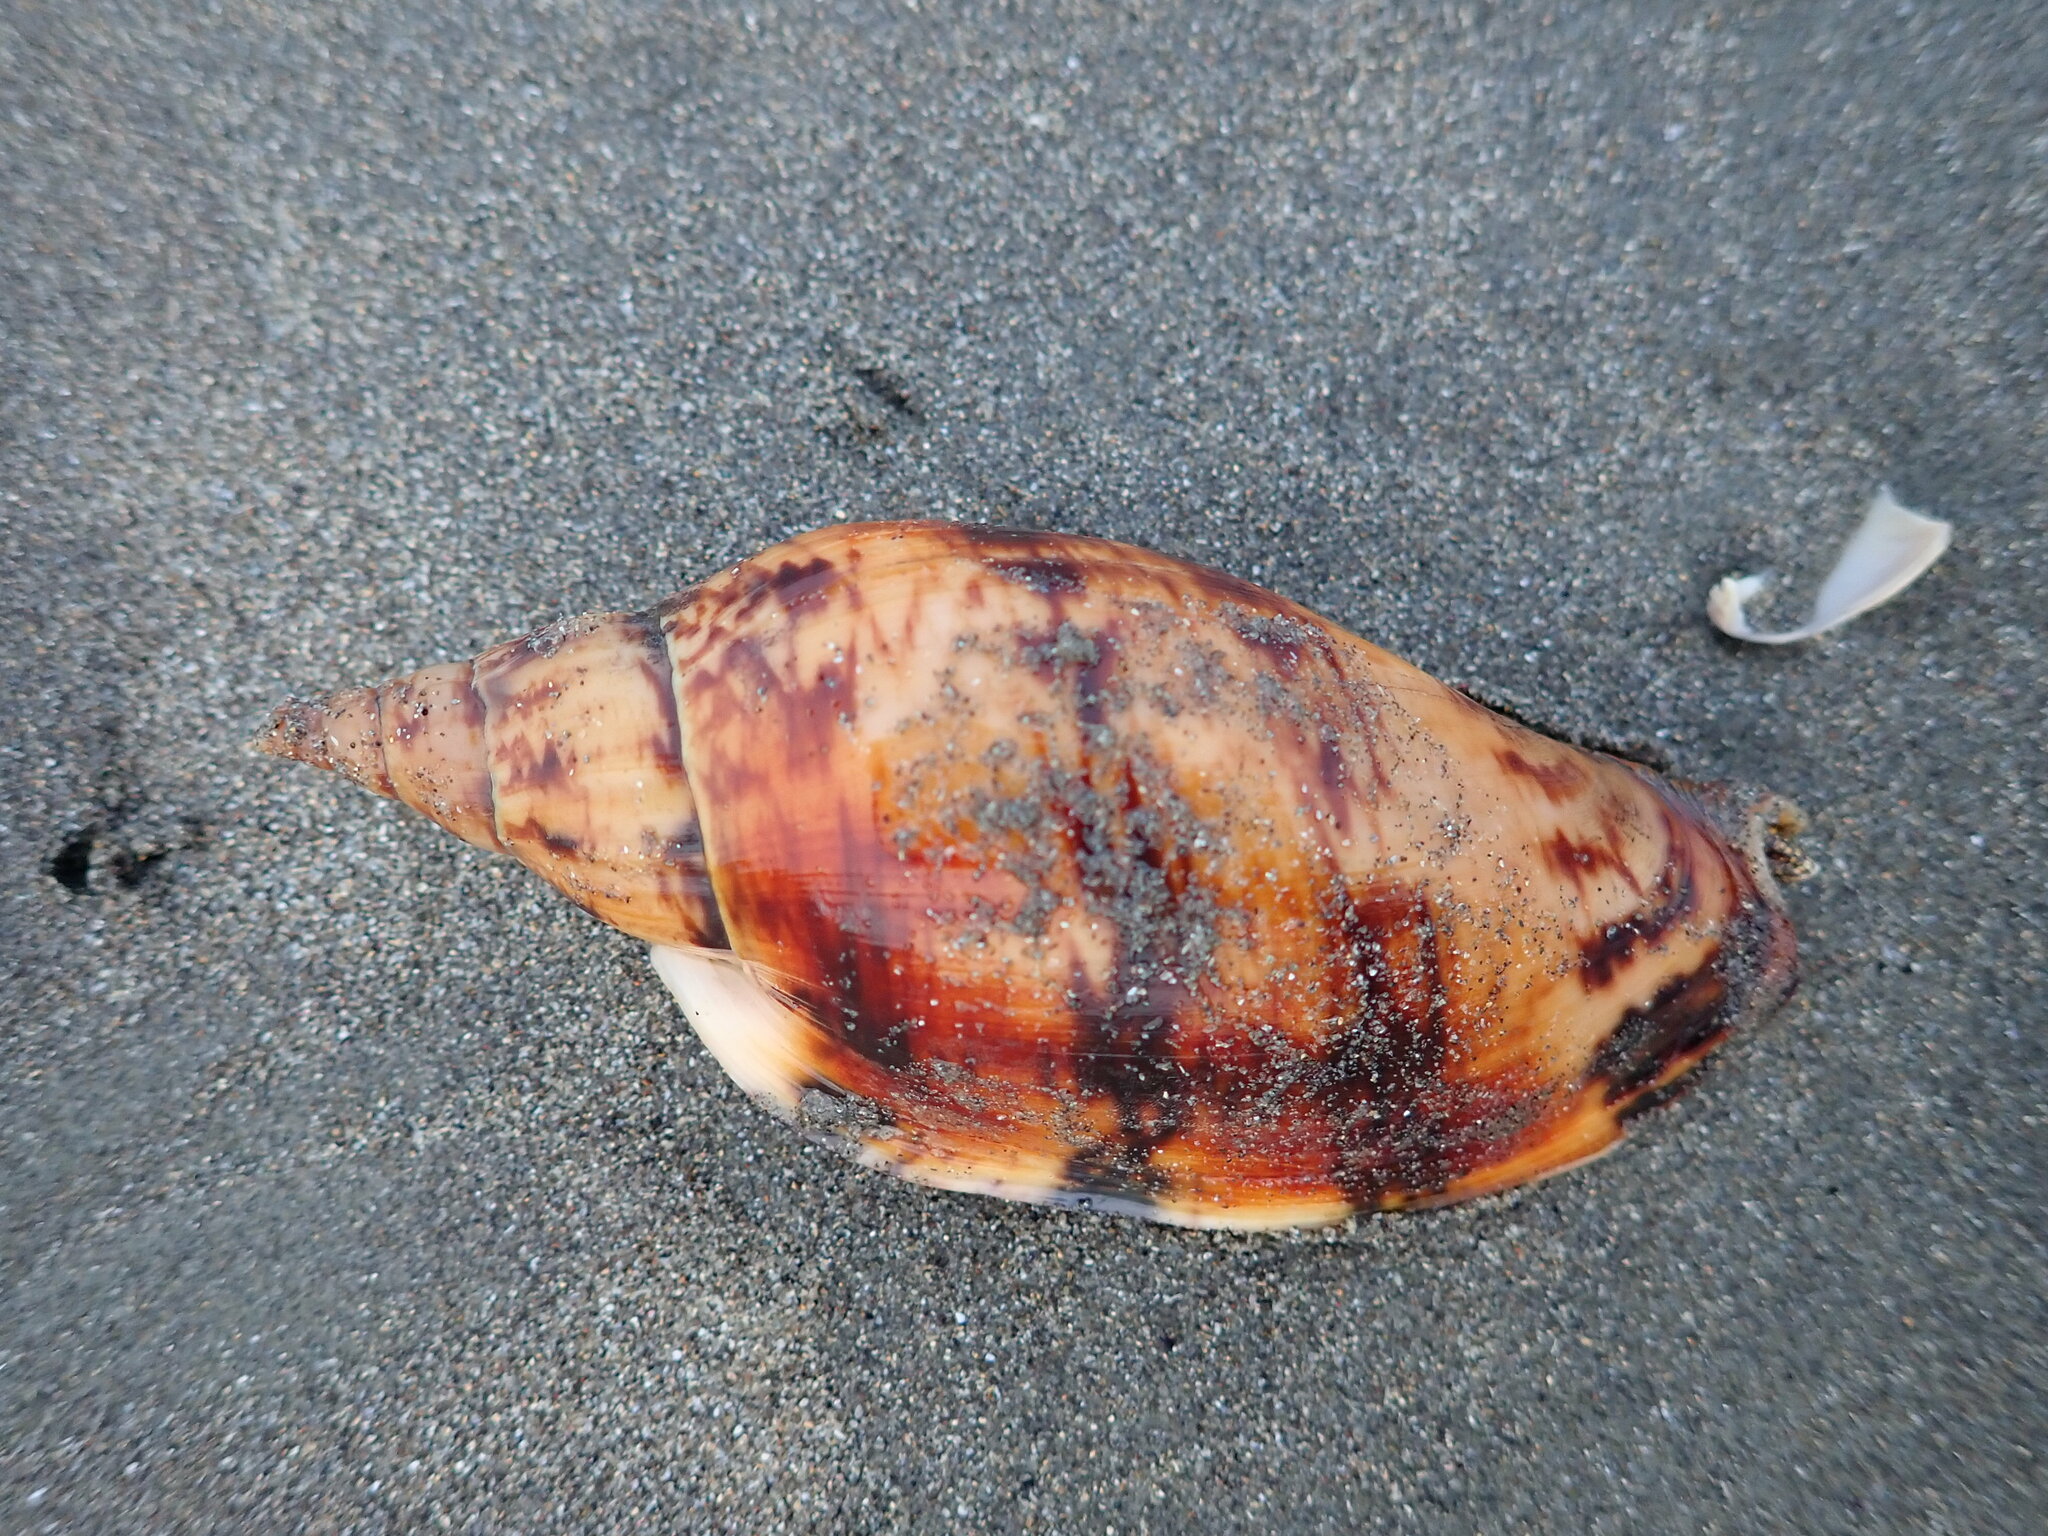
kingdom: Animalia
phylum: Mollusca
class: Gastropoda
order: Neogastropoda
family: Volutidae
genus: Alcithoe
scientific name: Alcithoe arabica
